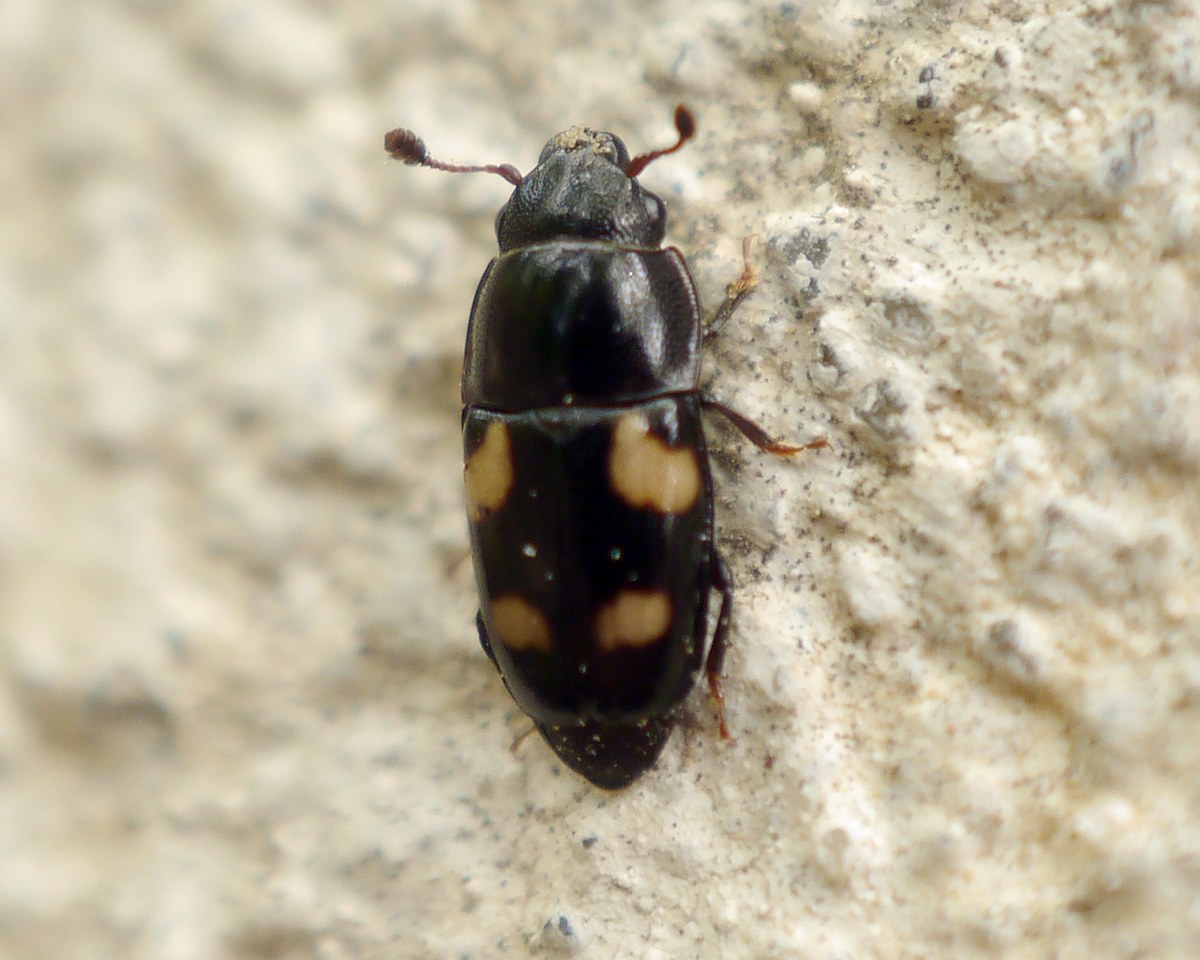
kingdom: Animalia
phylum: Arthropoda
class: Insecta
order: Coleoptera
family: Nitidulidae
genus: Glischrochilus
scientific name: Glischrochilus quadrisignatus
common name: Picnic beetle
